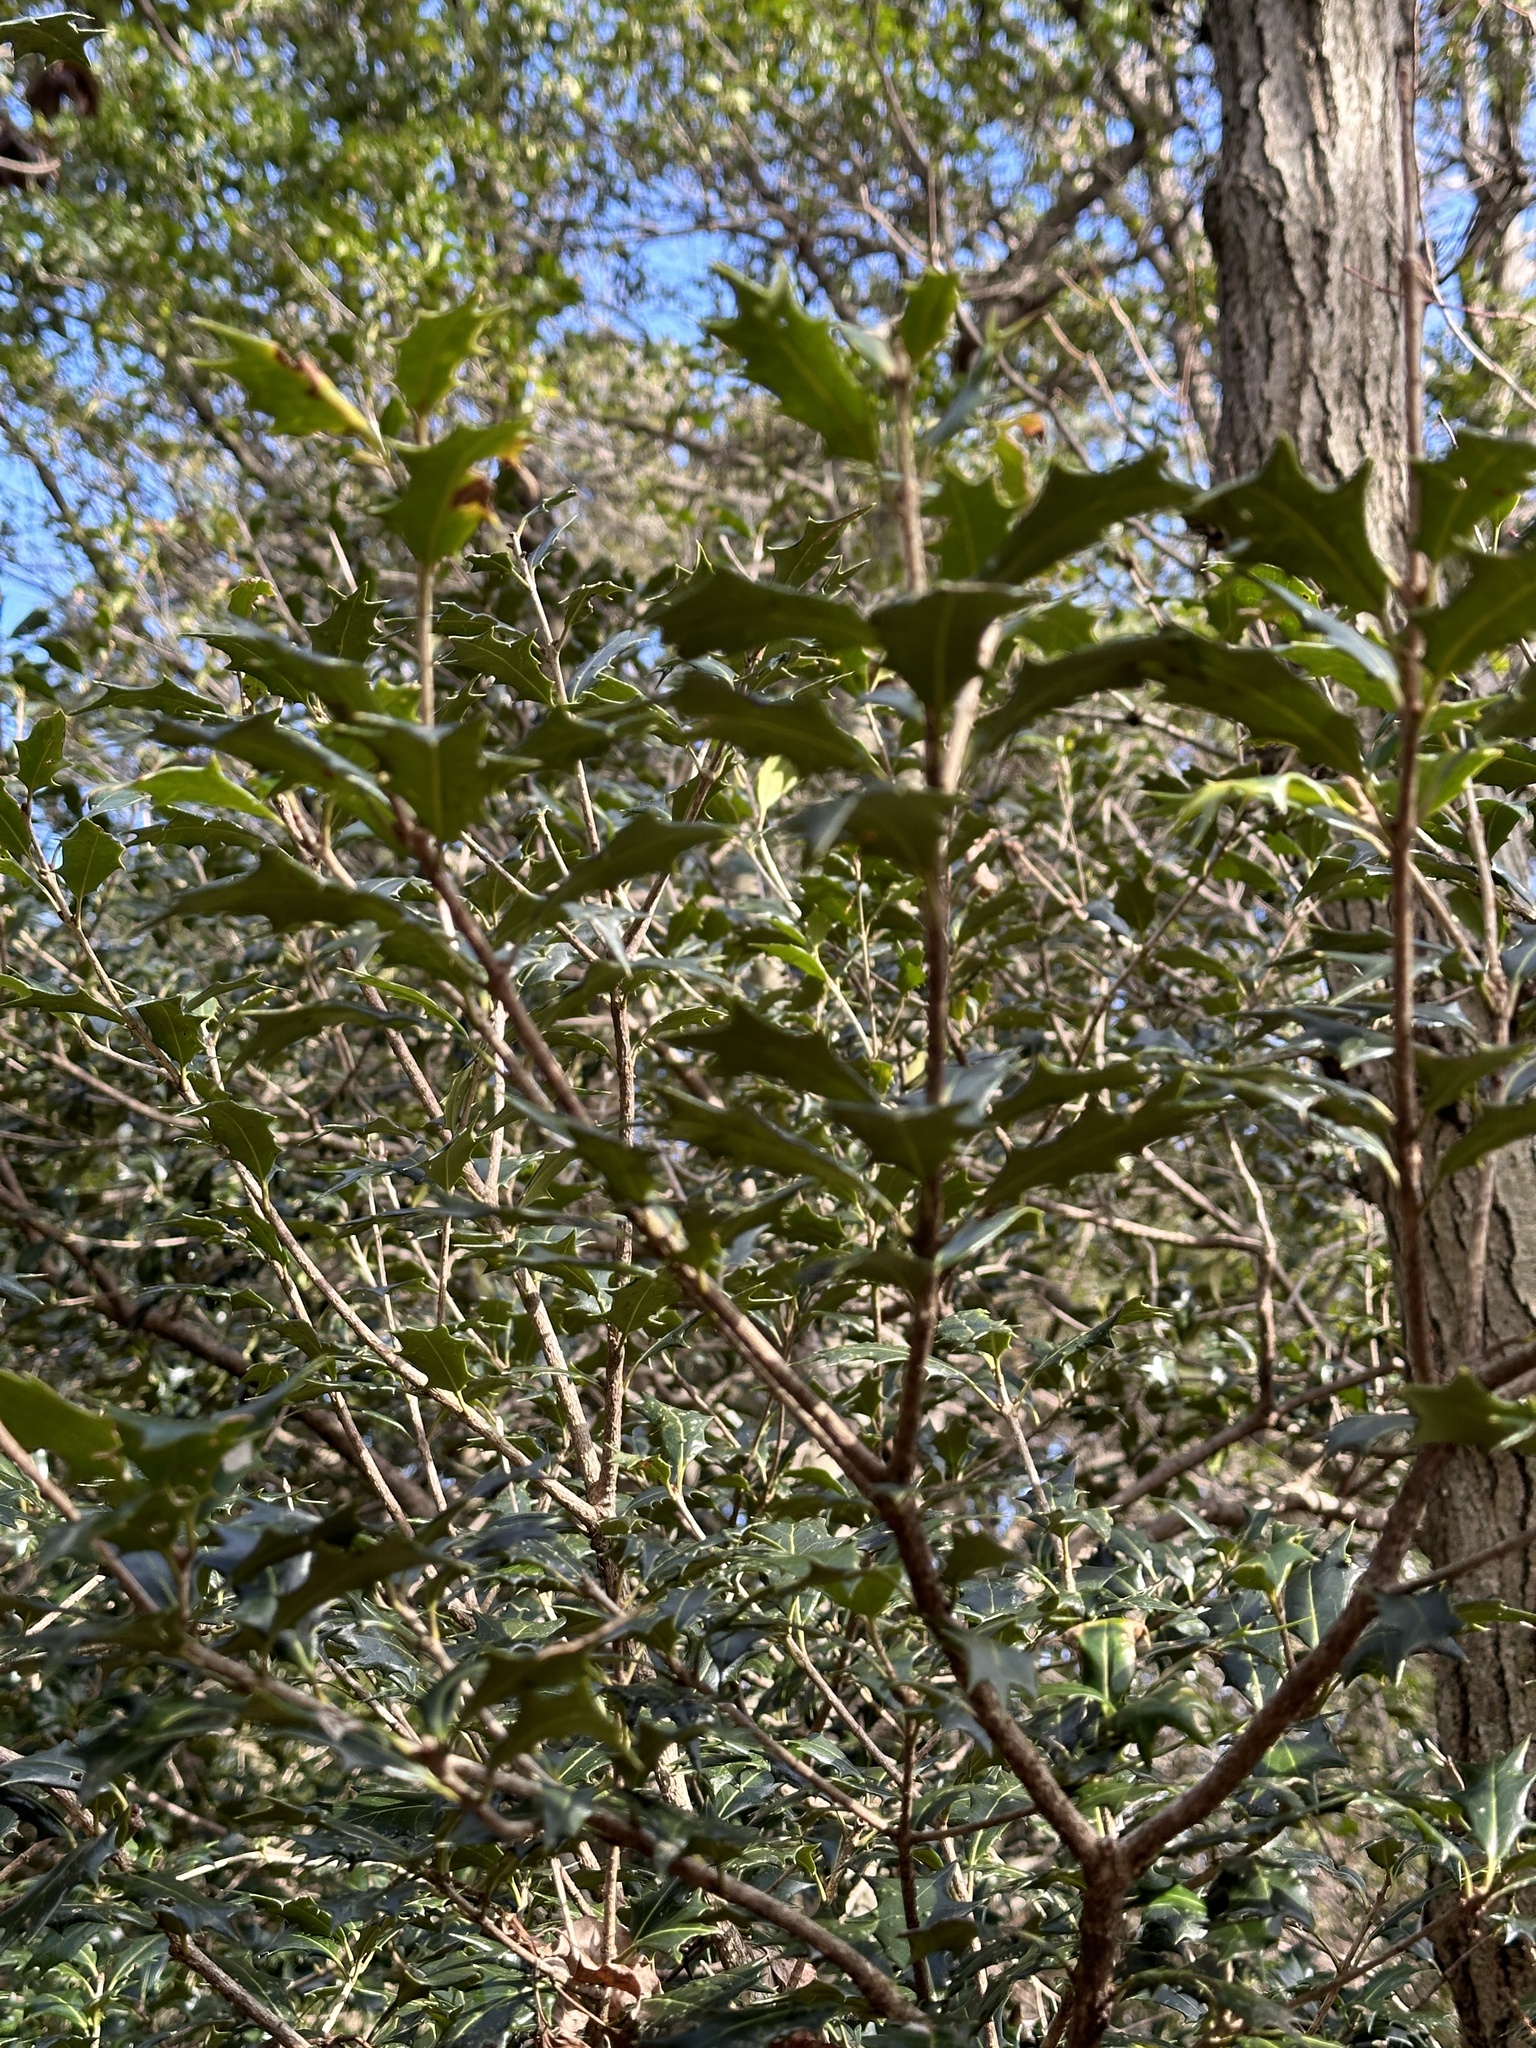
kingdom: Plantae
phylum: Tracheophyta
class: Magnoliopsida
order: Lamiales
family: Oleaceae
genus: Osmanthus
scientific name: Osmanthus heterophyllus
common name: Holly osmanthus
